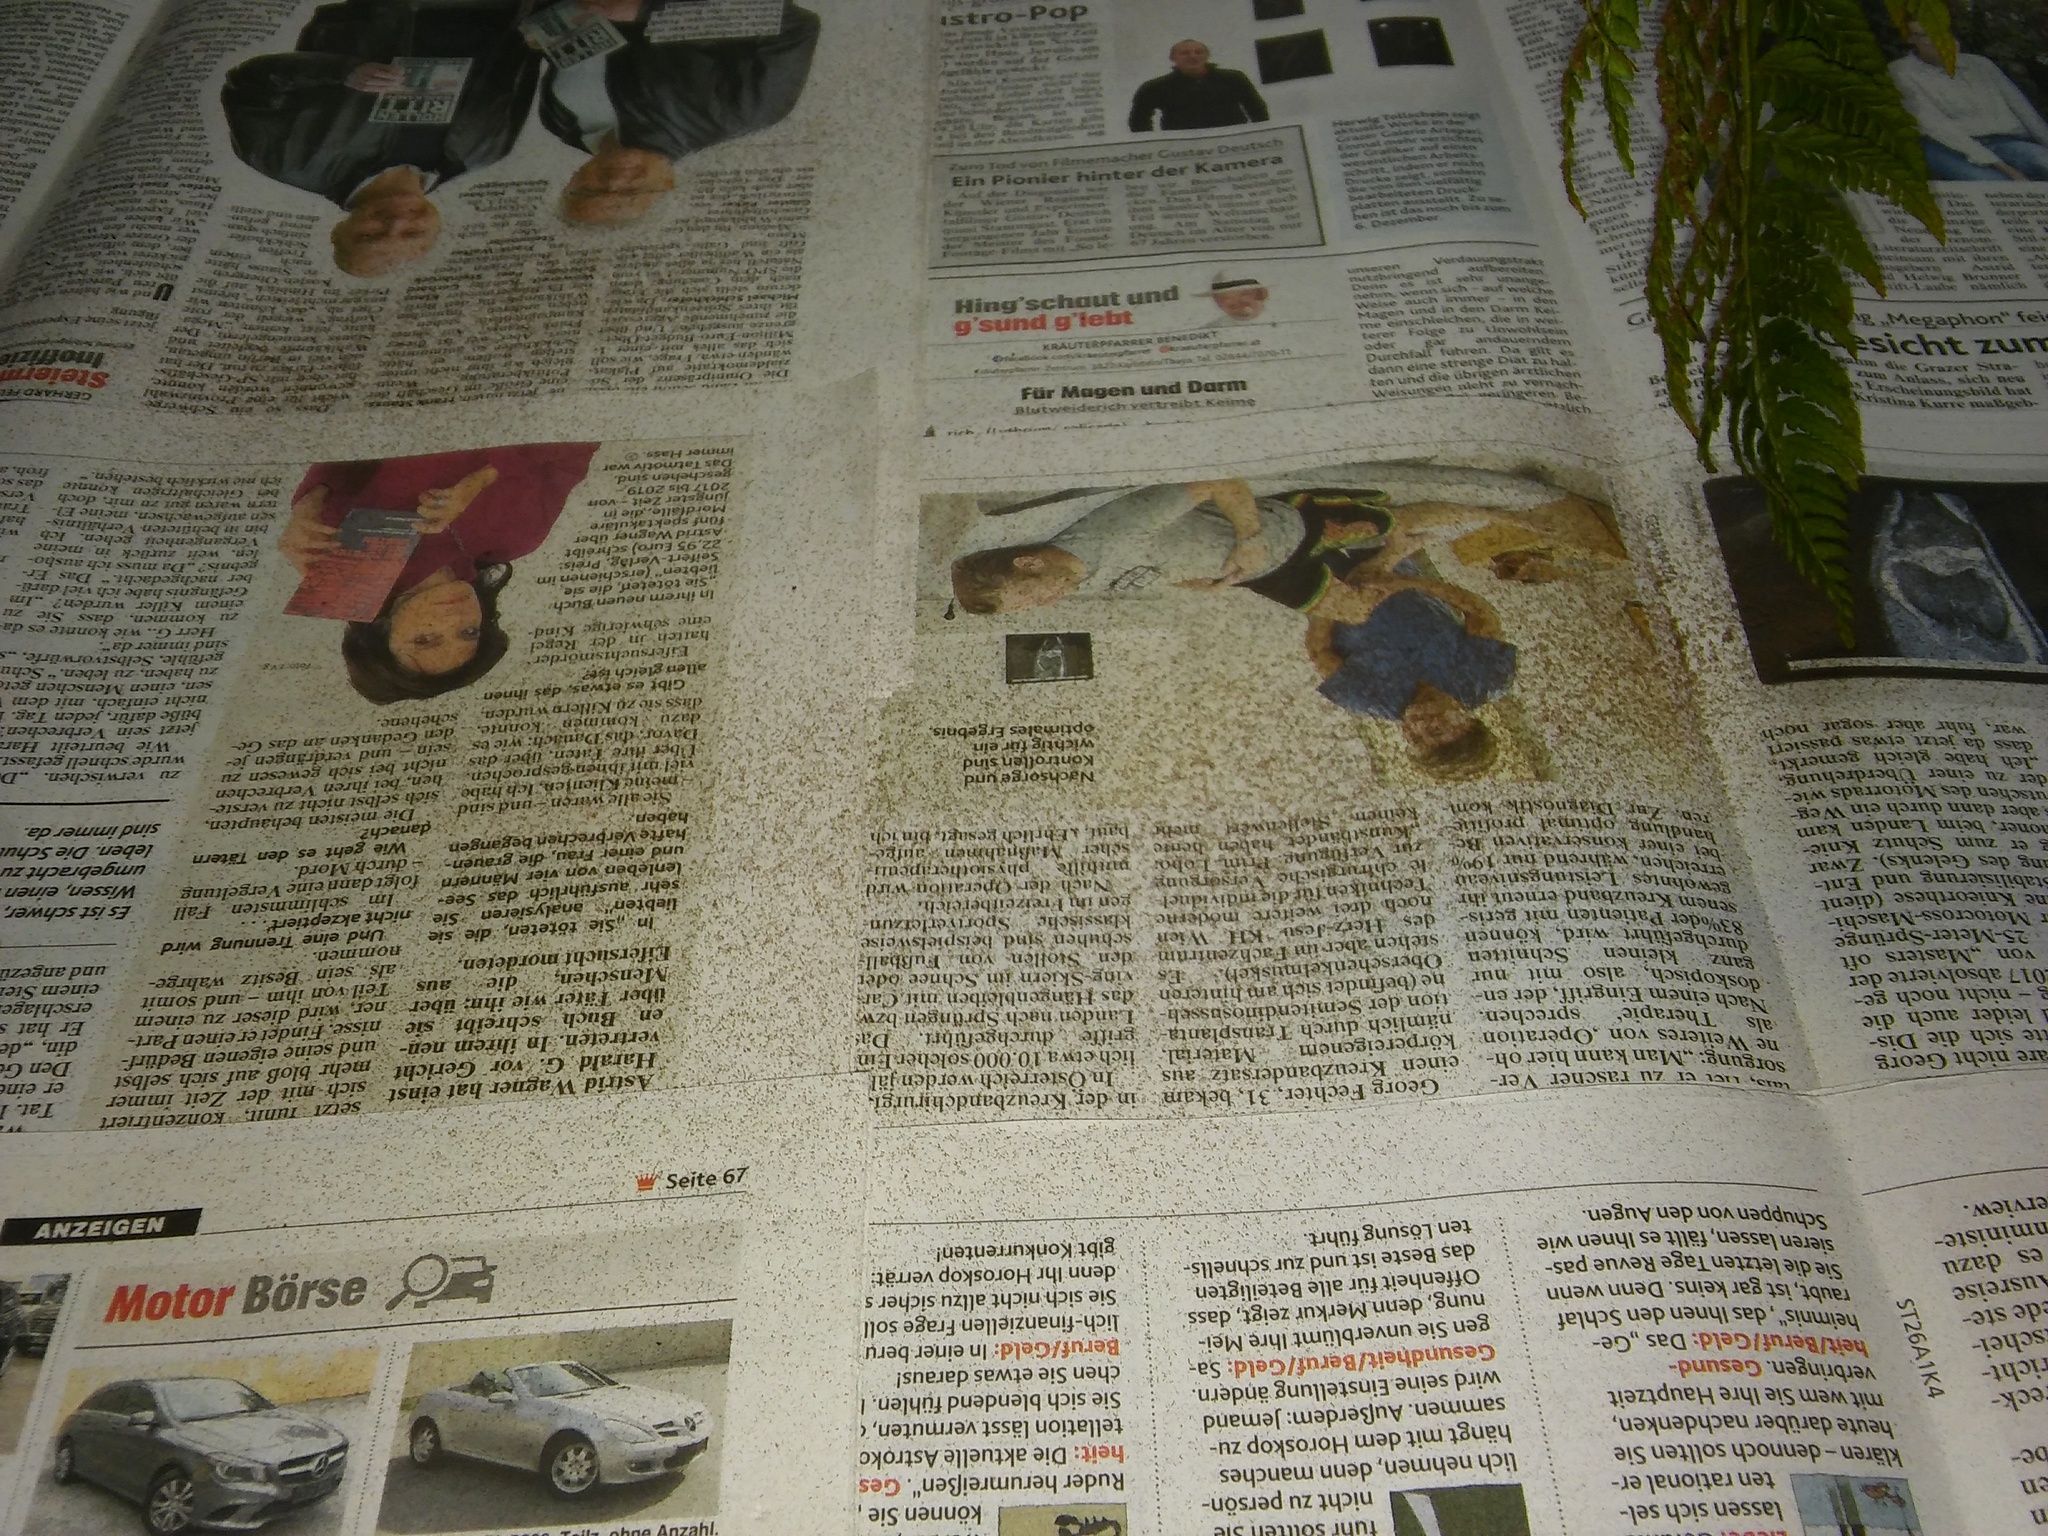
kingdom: Plantae
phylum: Tracheophyta
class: Polypodiopsida
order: Polypodiales
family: Dryopteridaceae
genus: Polystichum
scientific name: Polystichum aculeatum
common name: Hard shield-fern
